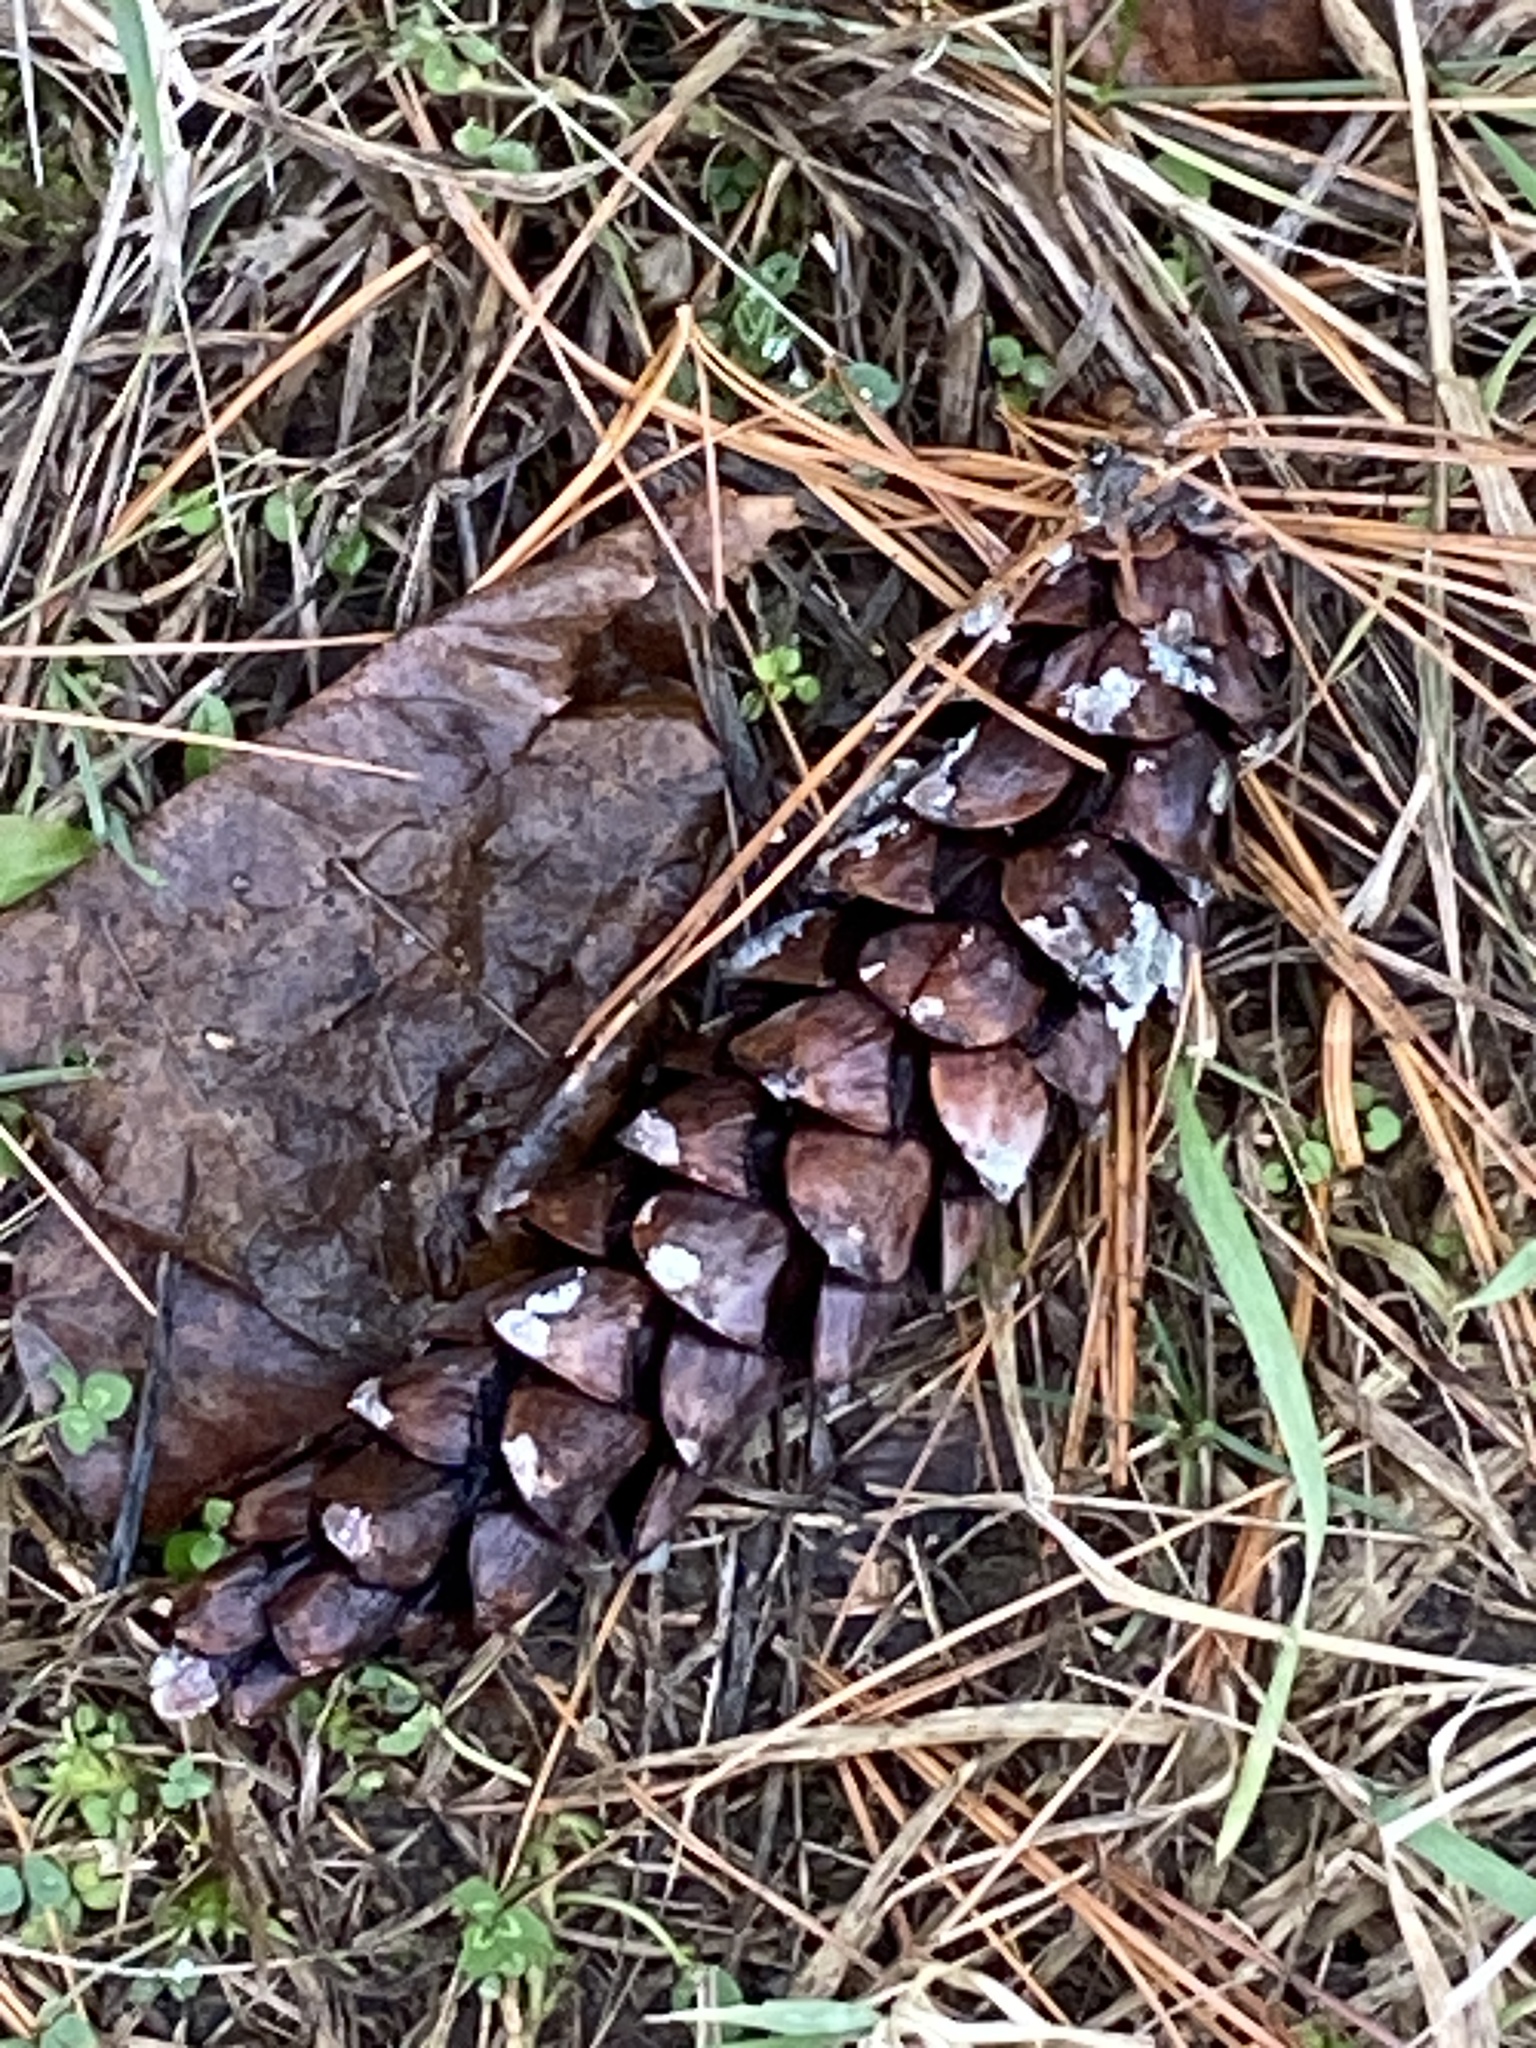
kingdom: Plantae
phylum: Tracheophyta
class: Pinopsida
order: Pinales
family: Pinaceae
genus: Pinus
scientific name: Pinus strobus
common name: Weymouth pine
